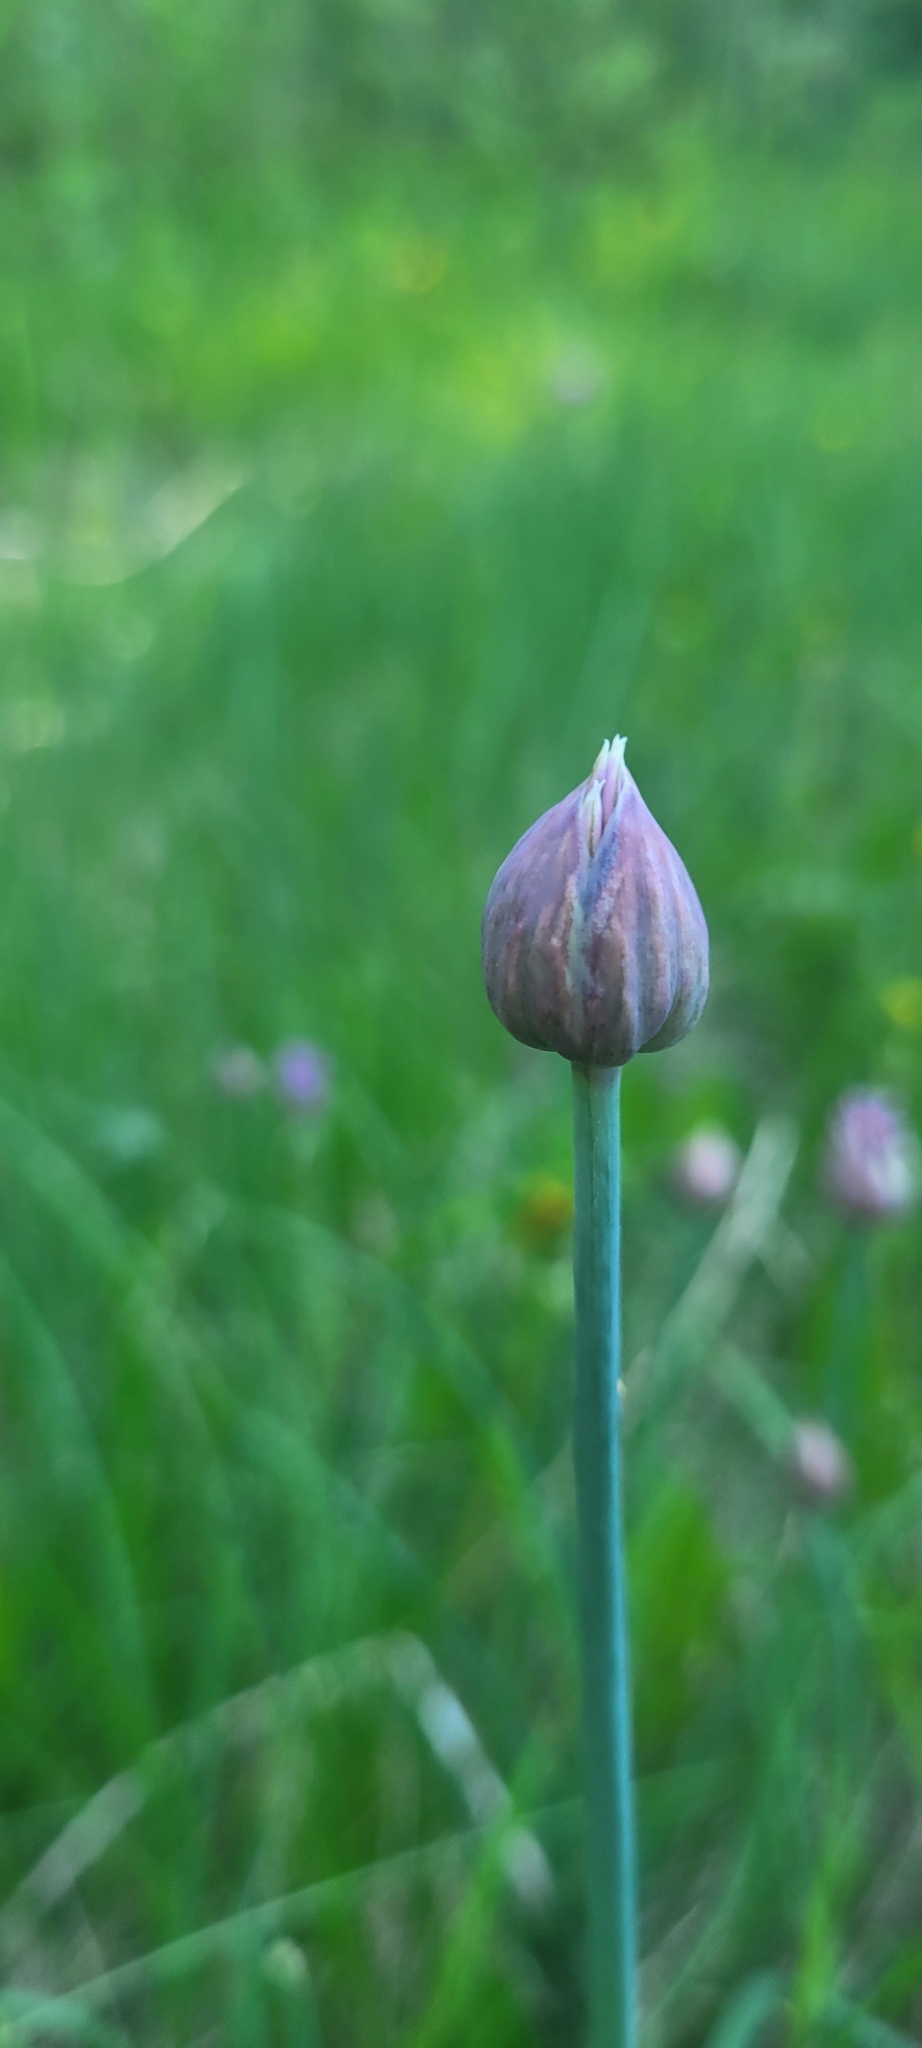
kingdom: Plantae
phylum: Tracheophyta
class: Liliopsida
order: Asparagales
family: Amaryllidaceae
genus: Allium
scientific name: Allium schoenoprasum
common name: Chives
